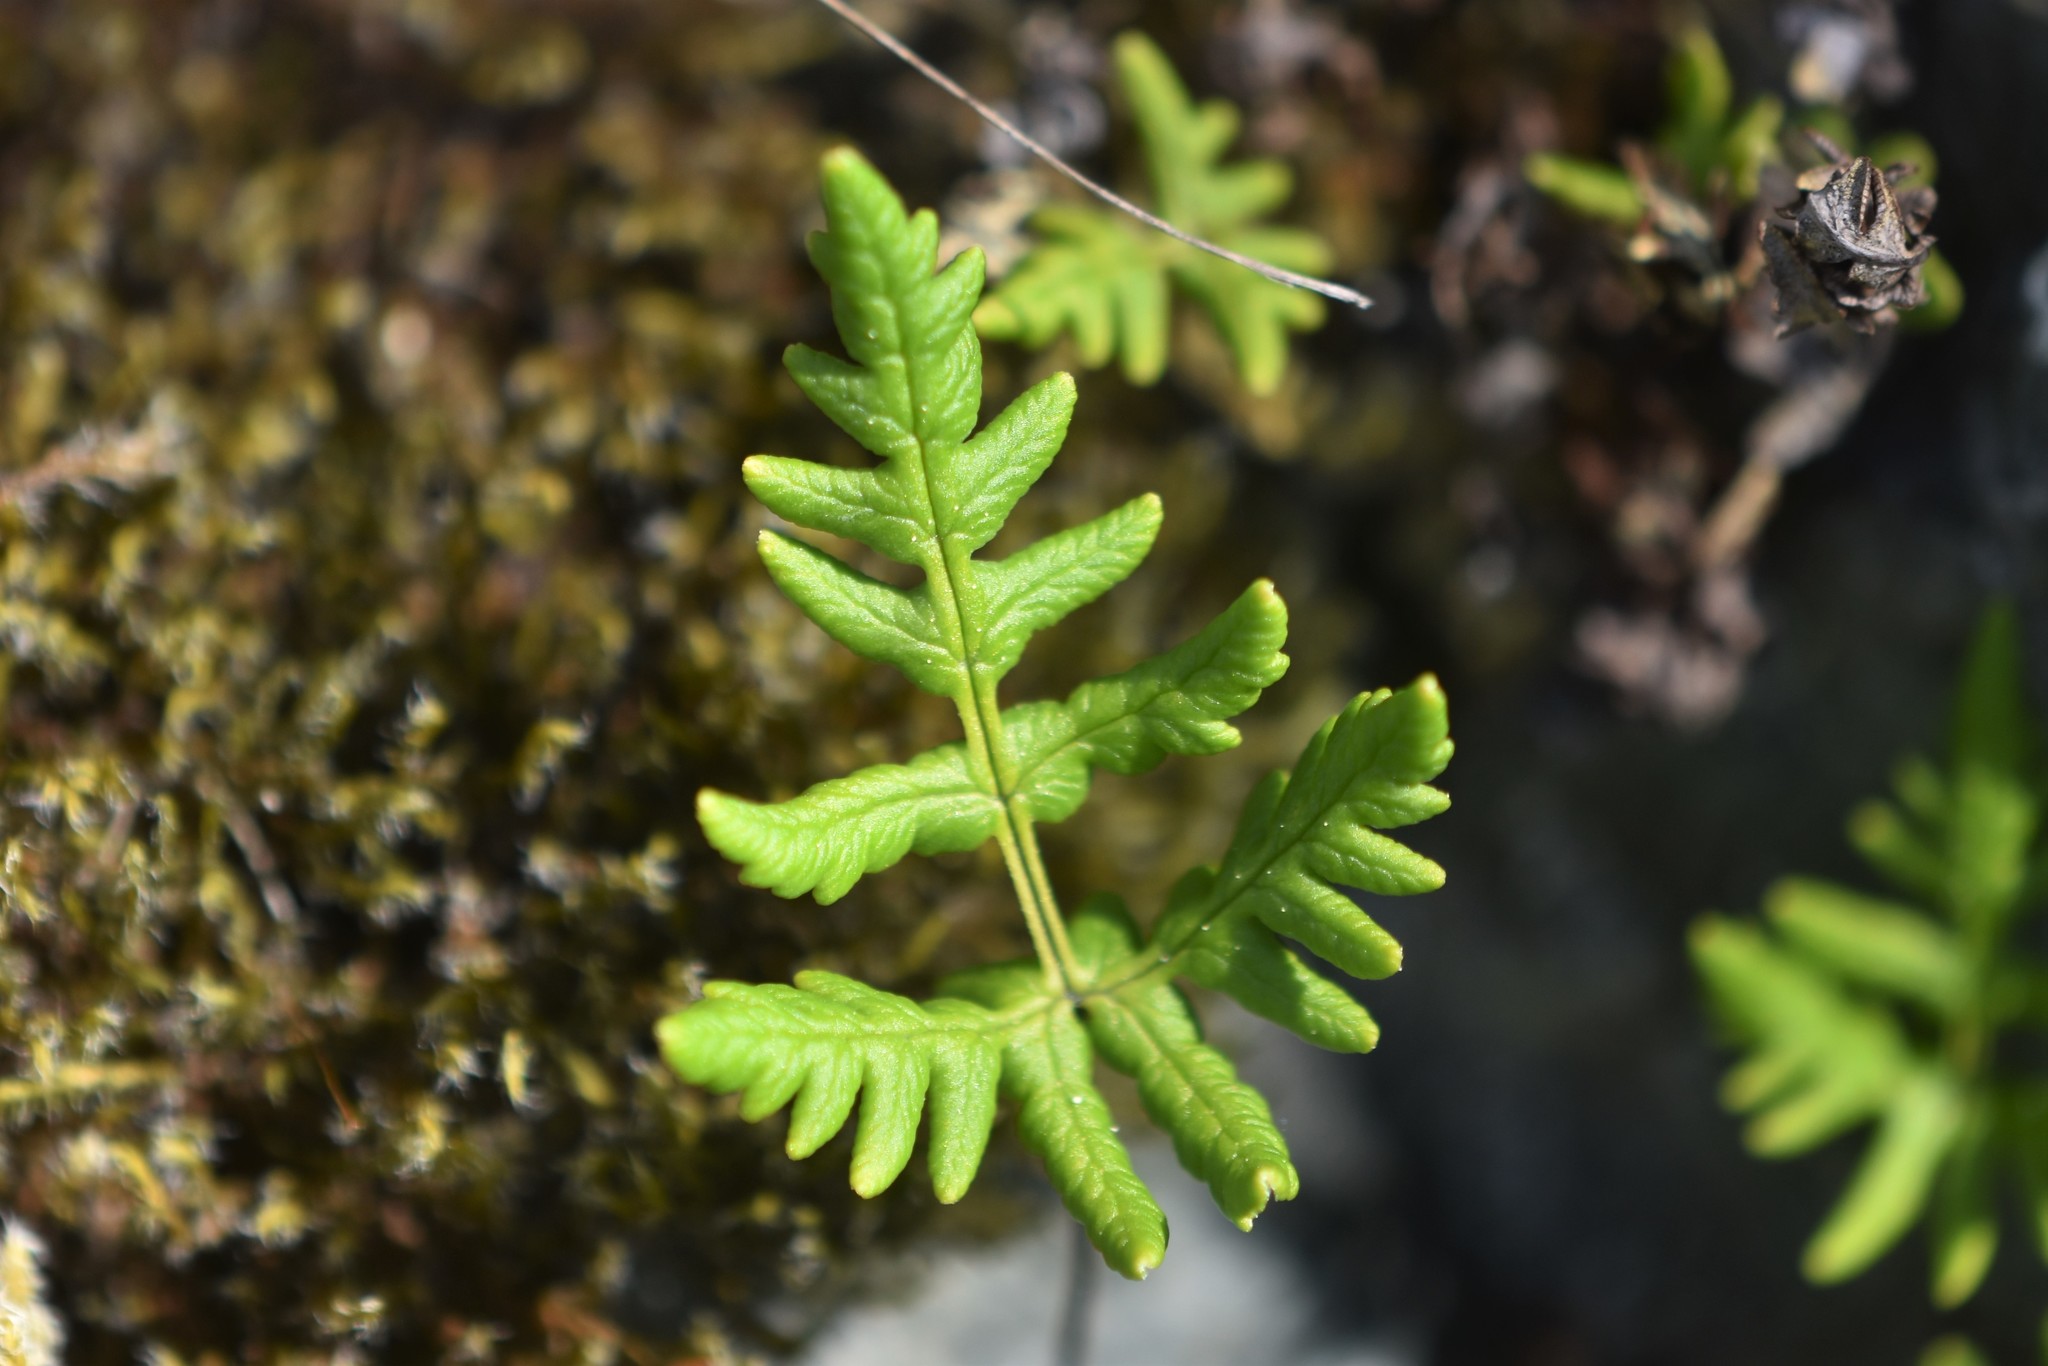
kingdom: Plantae
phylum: Tracheophyta
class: Polypodiopsida
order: Polypodiales
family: Pteridaceae
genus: Pentagramma
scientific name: Pentagramma triangularis
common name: Gold fern
